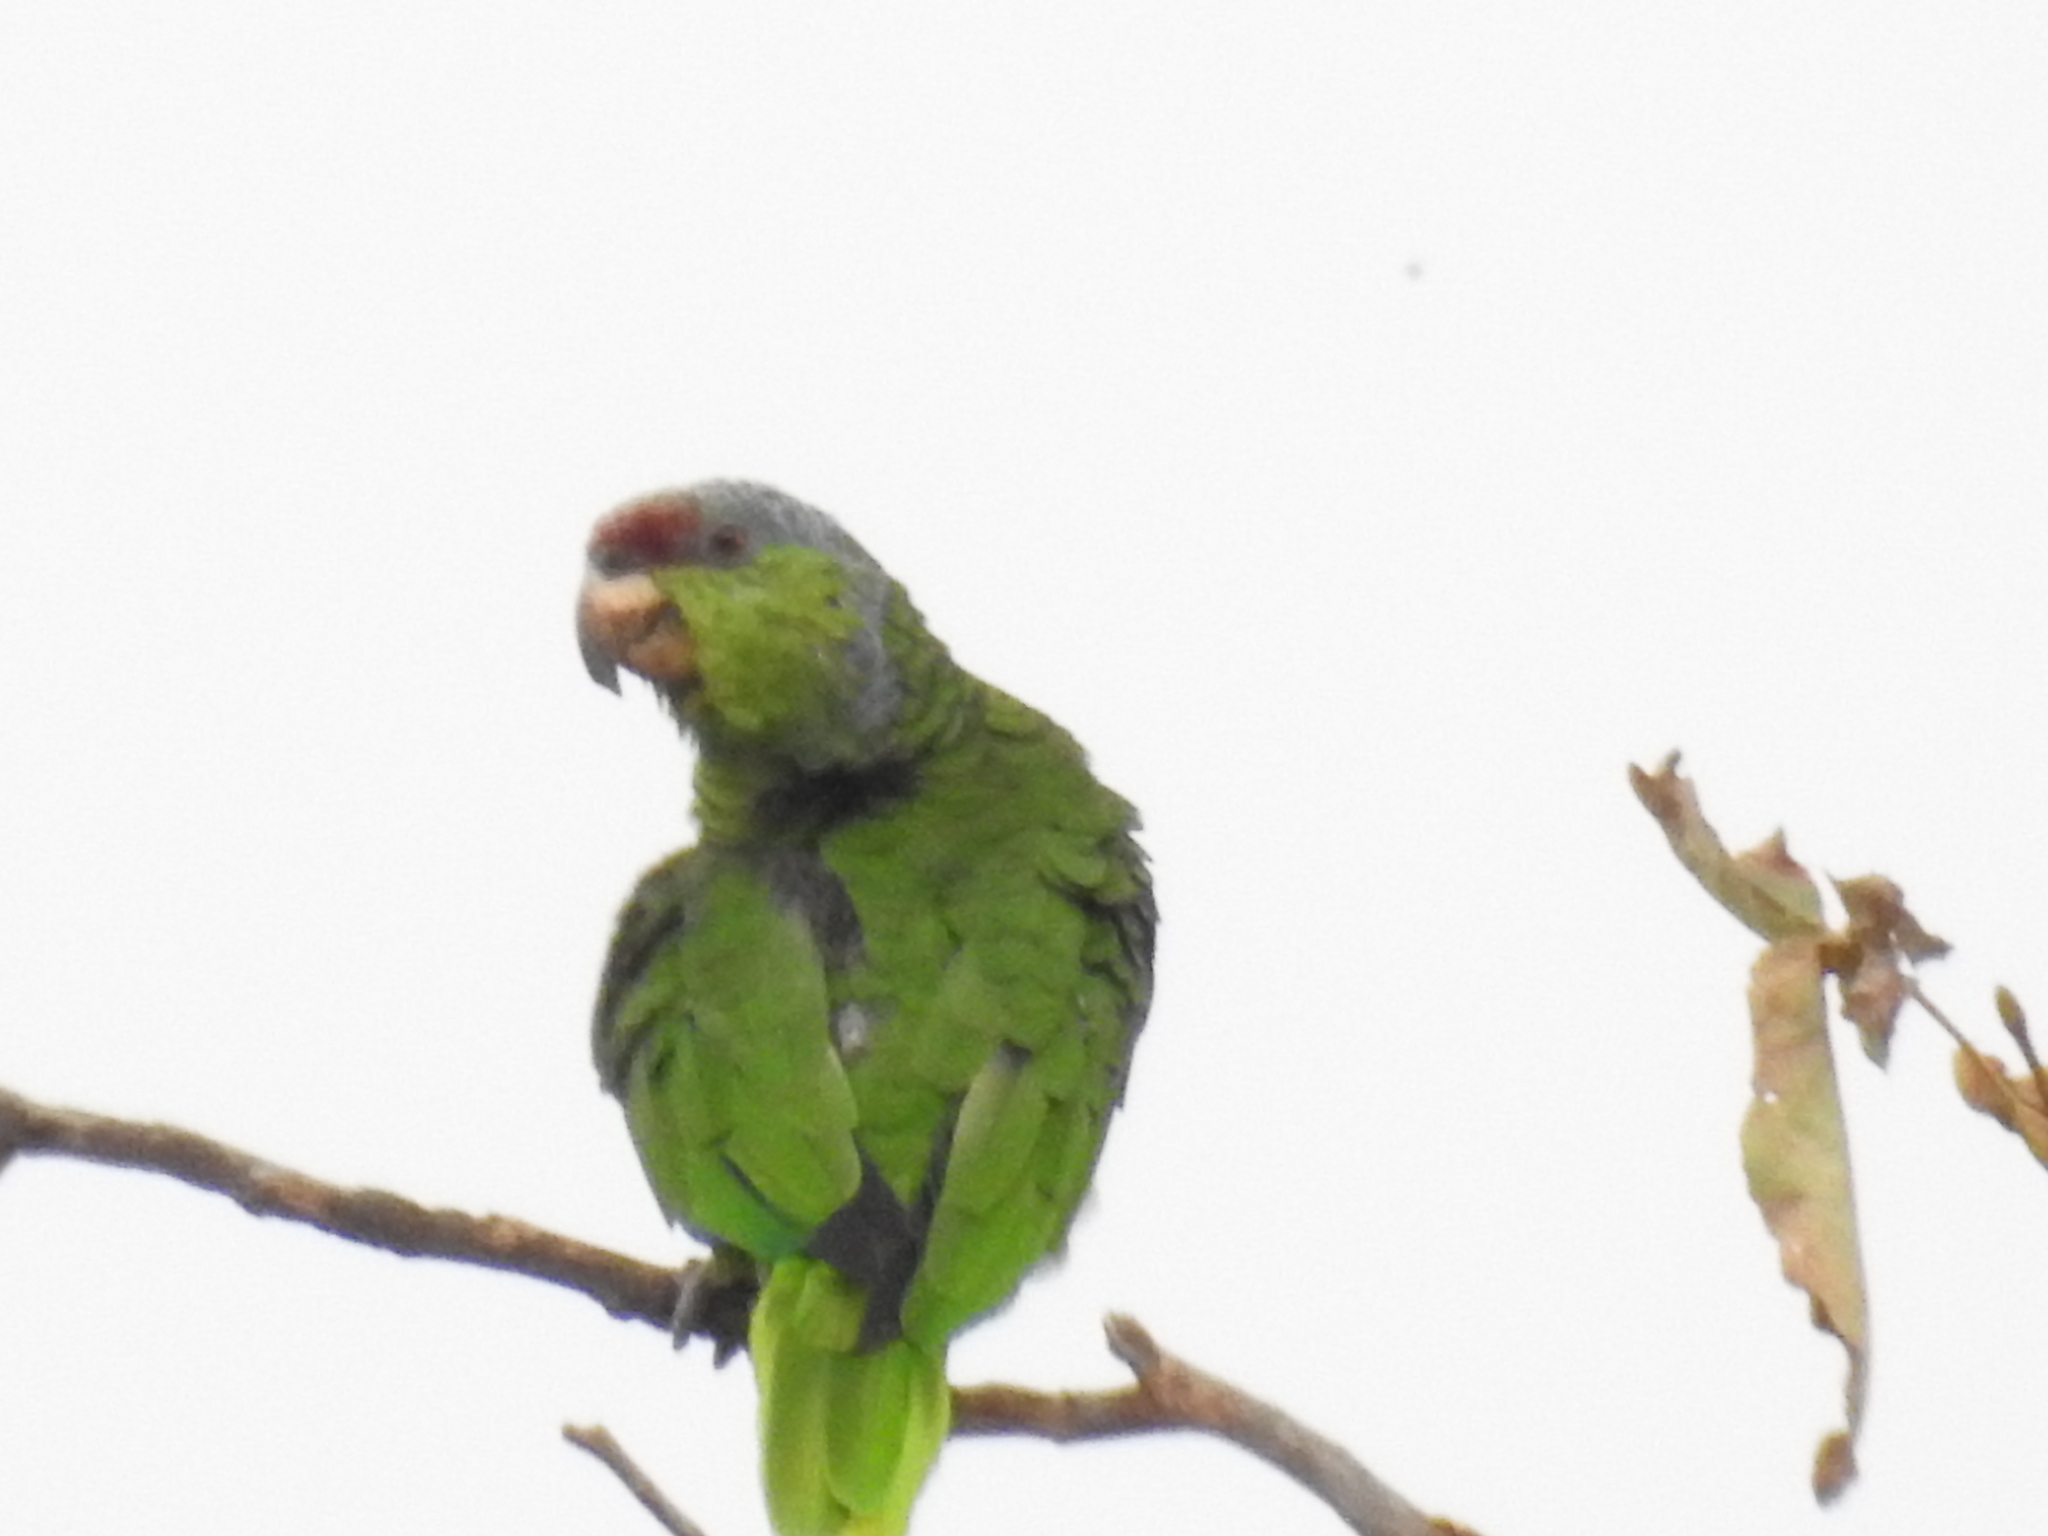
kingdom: Animalia
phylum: Chordata
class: Aves
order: Psittaciformes
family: Psittacidae
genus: Amazona
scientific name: Amazona finschi
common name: Lilac-crowned amazon
